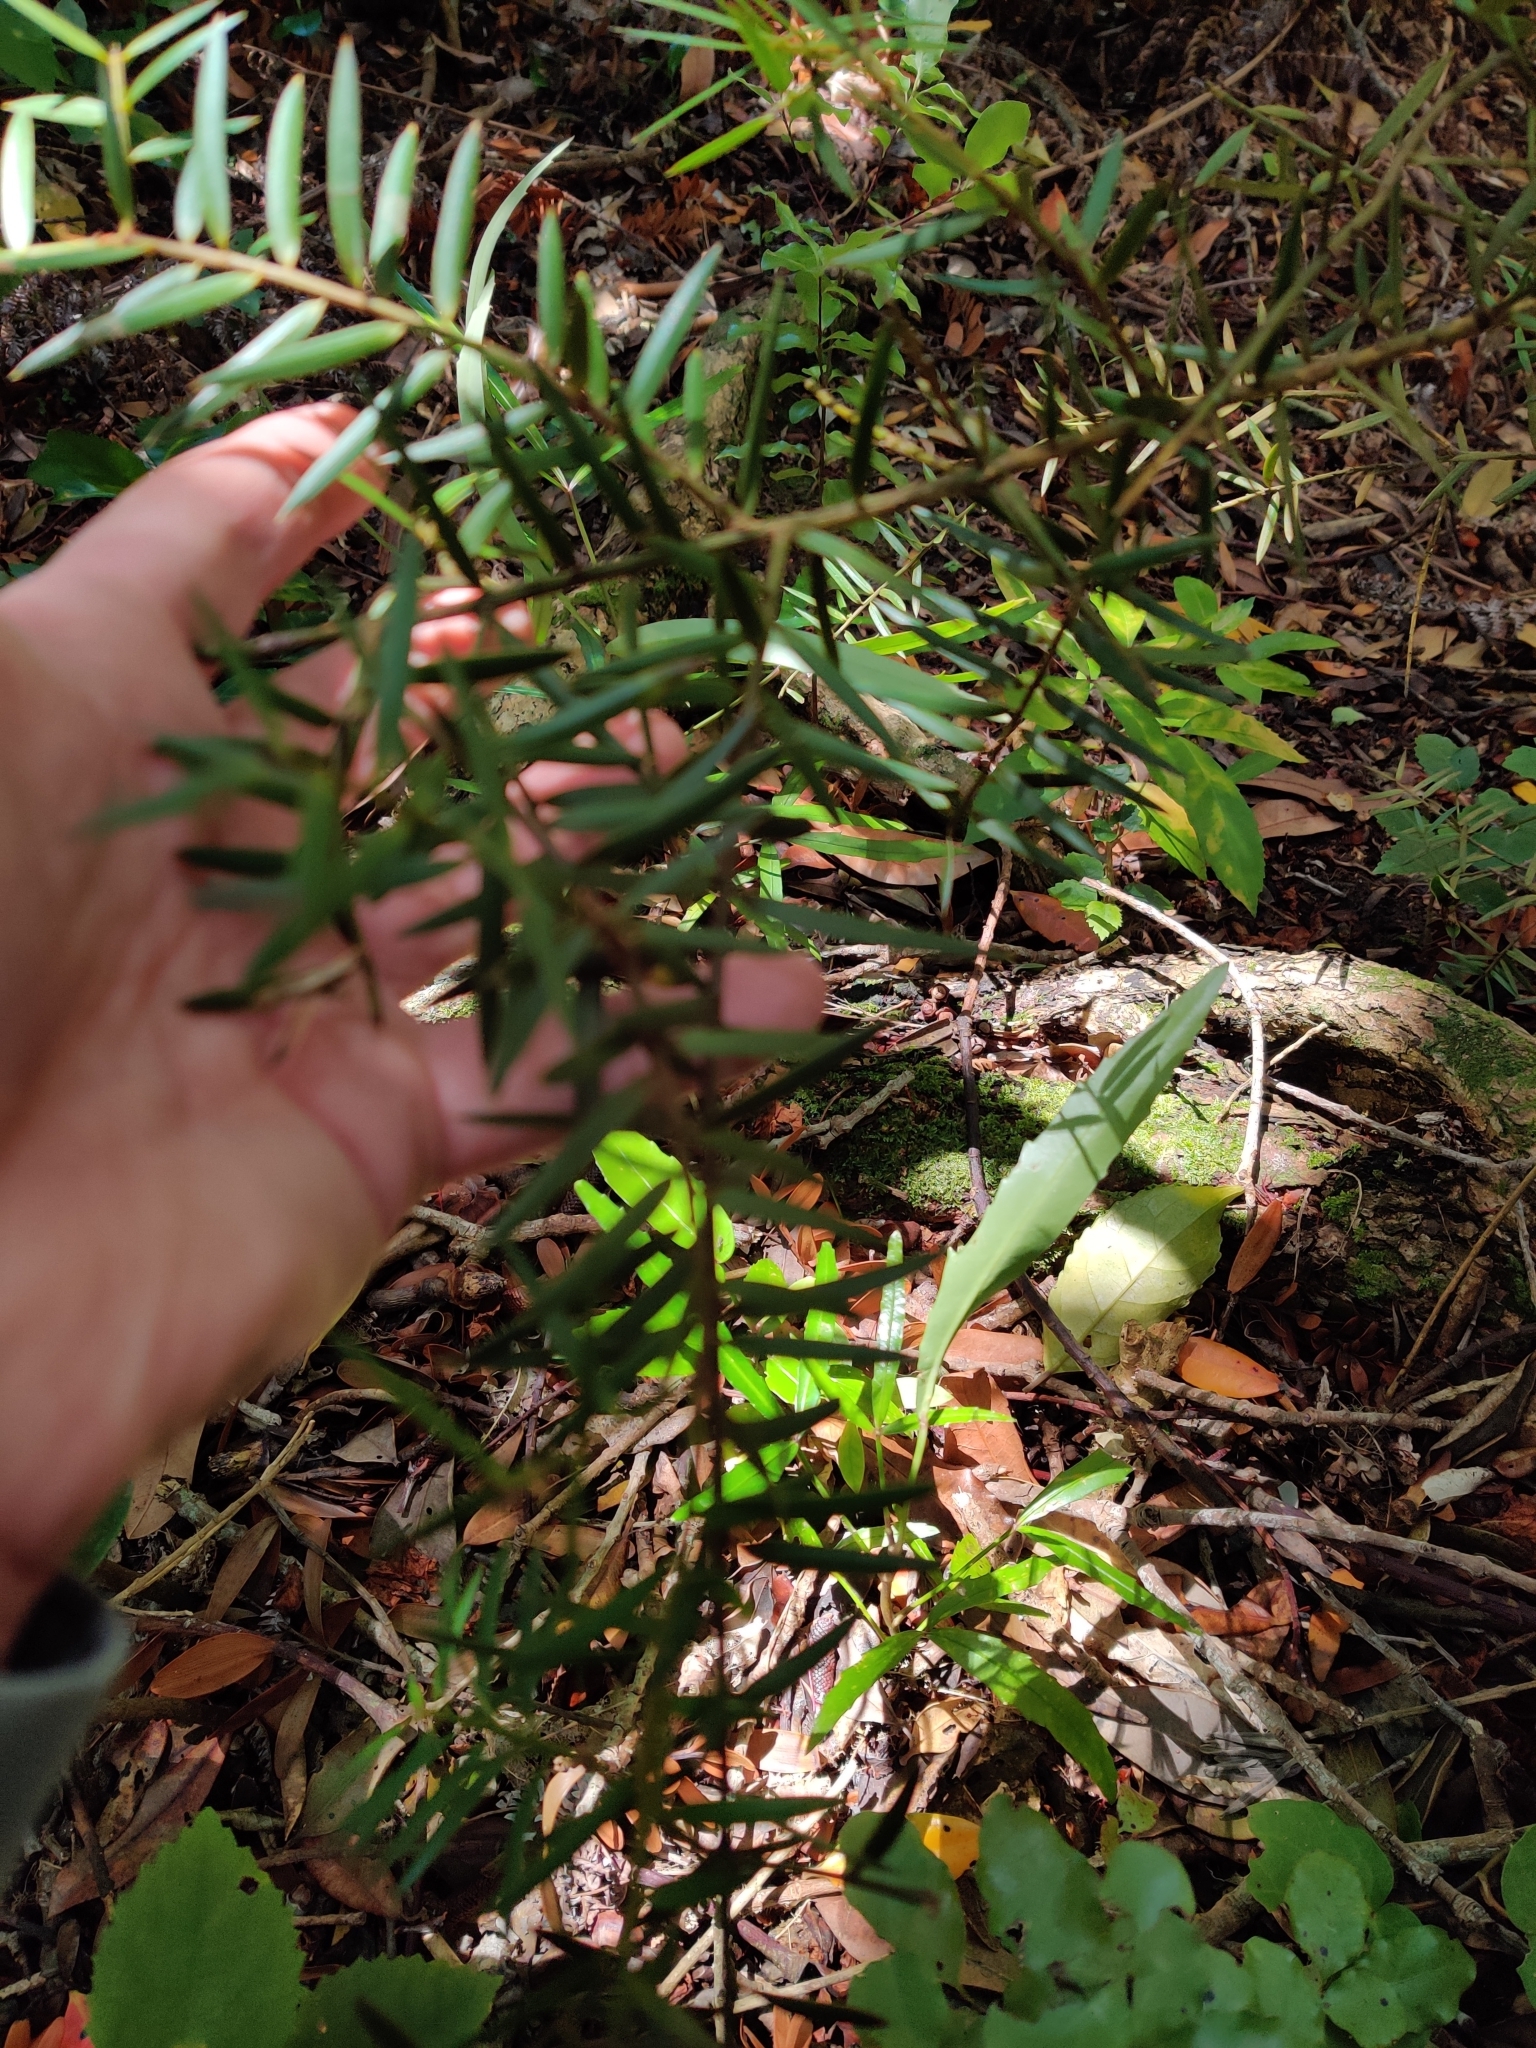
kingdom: Plantae
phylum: Tracheophyta
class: Pinopsida
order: Pinales
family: Podocarpaceae
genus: Podocarpus
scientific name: Podocarpus totara
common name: Totara
